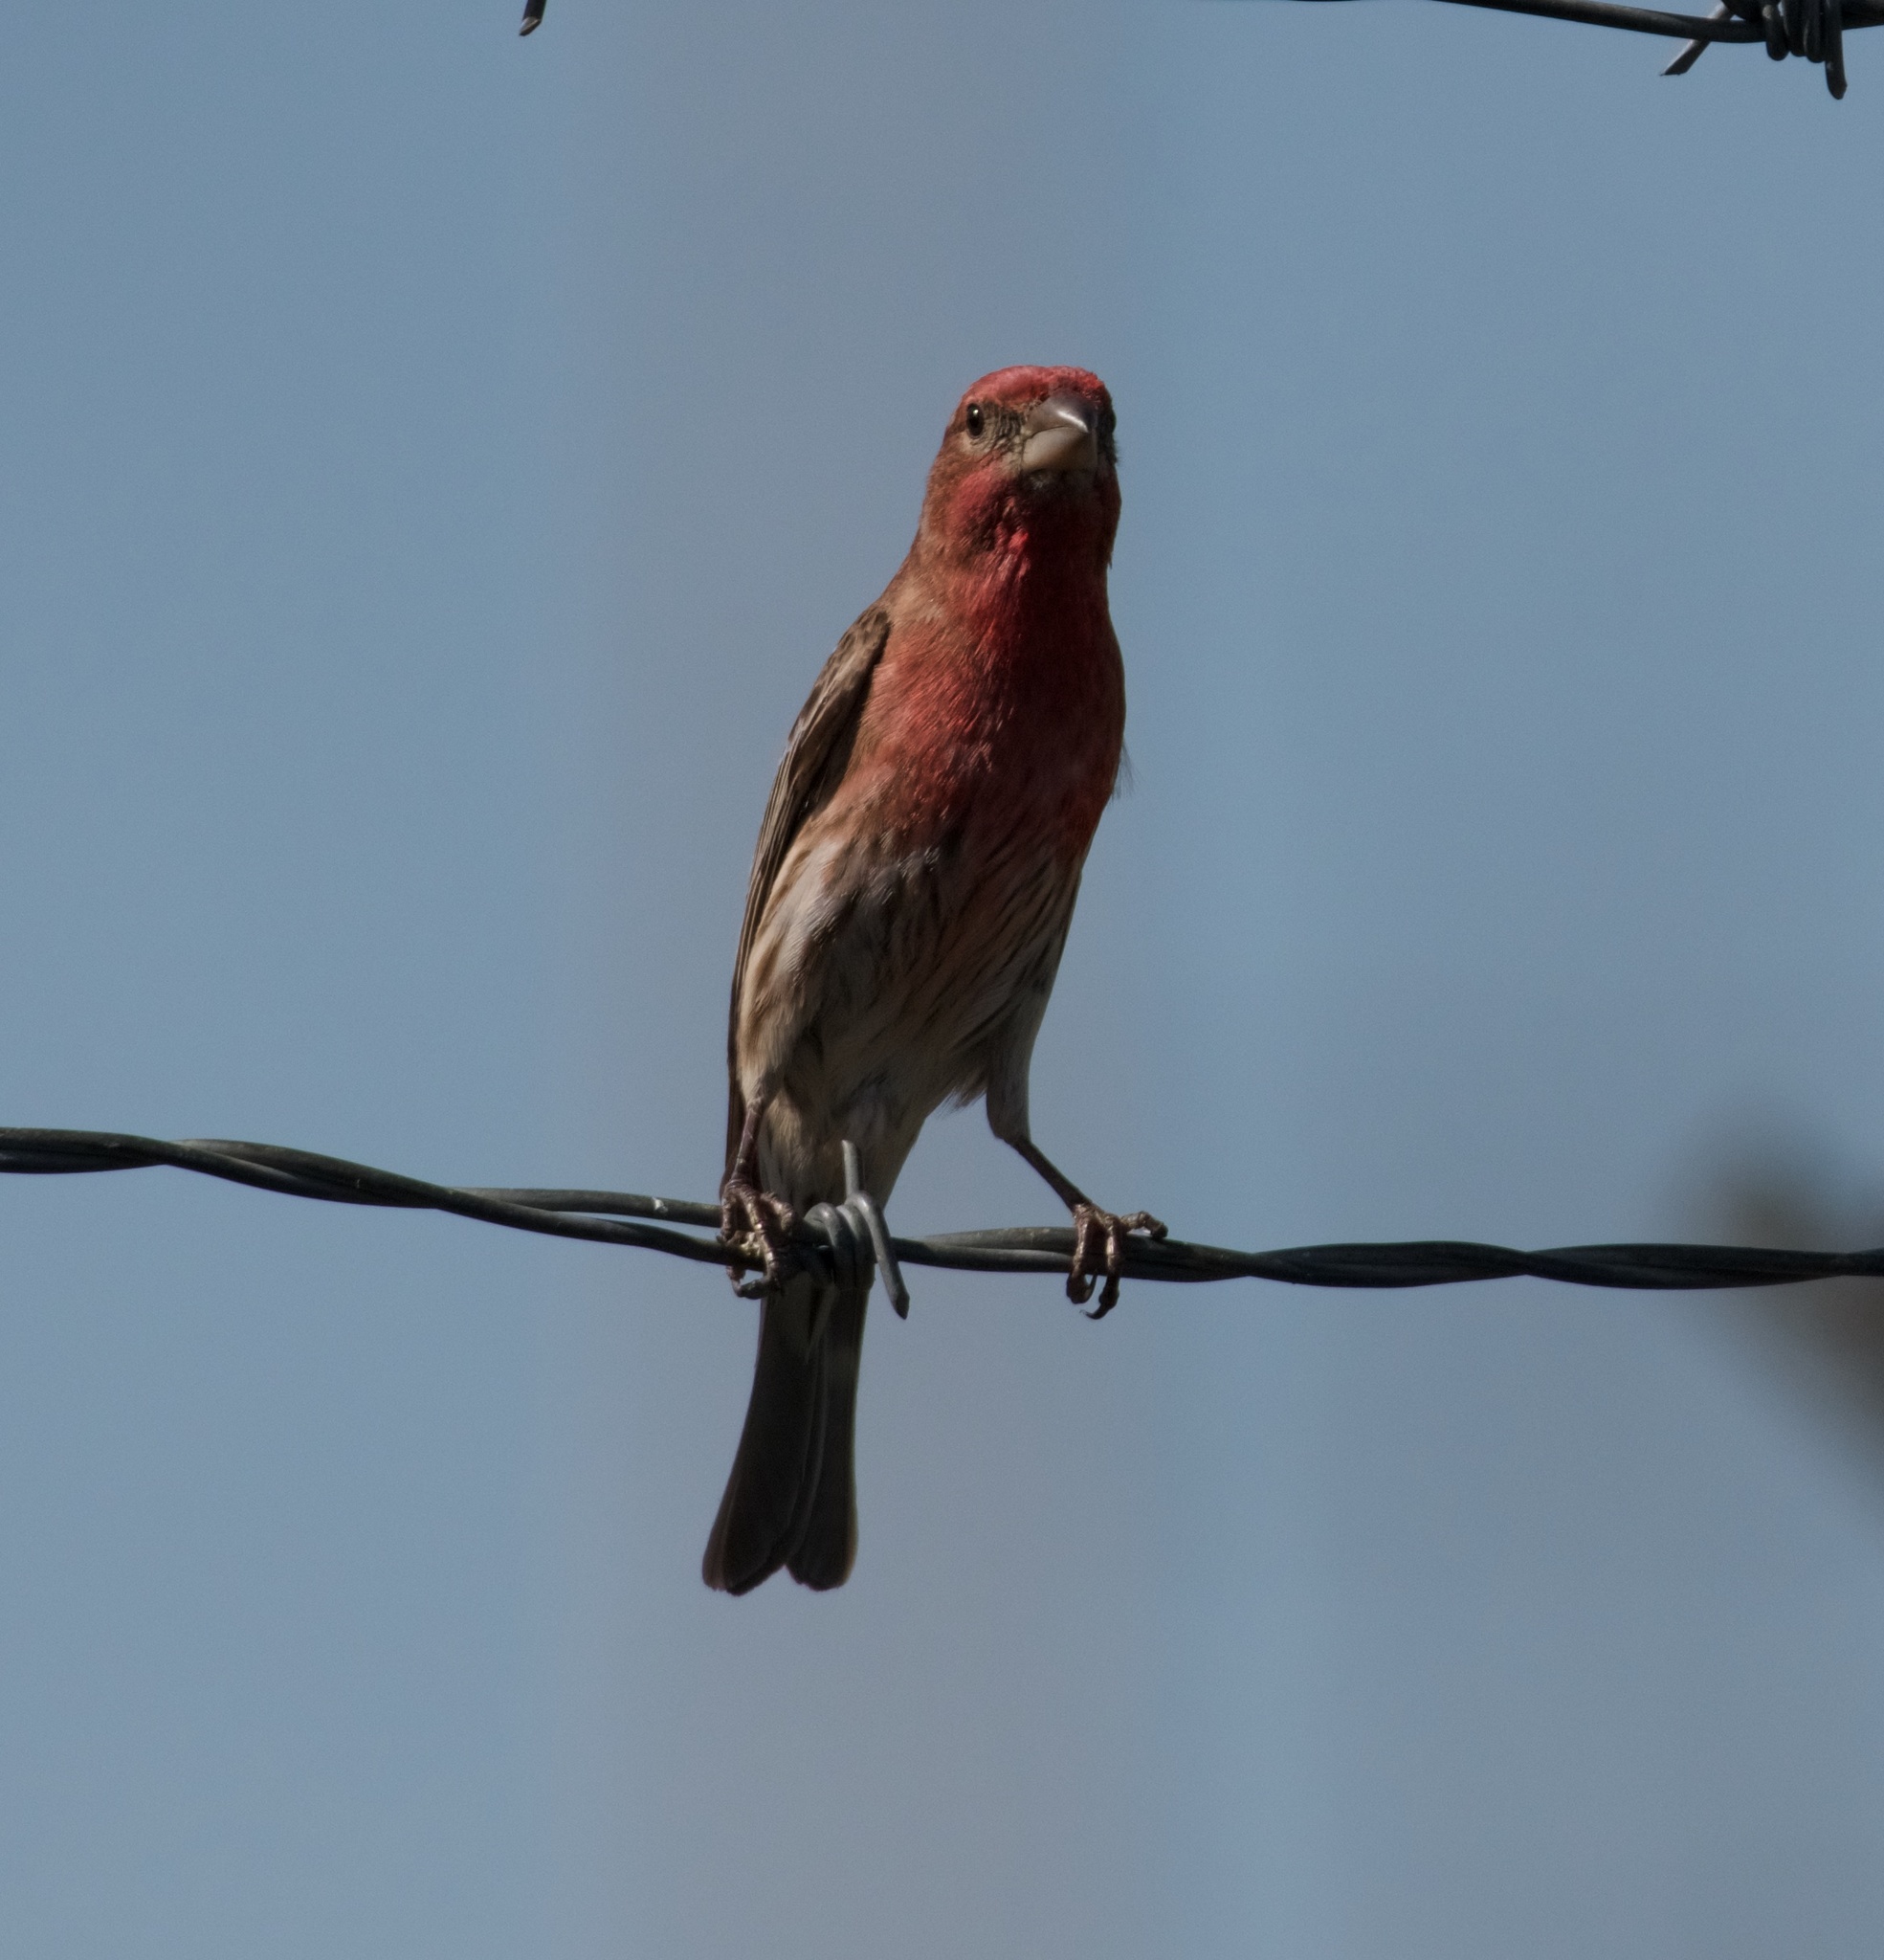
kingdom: Animalia
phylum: Chordata
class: Aves
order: Passeriformes
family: Fringillidae
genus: Haemorhous
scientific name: Haemorhous mexicanus
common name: House finch
